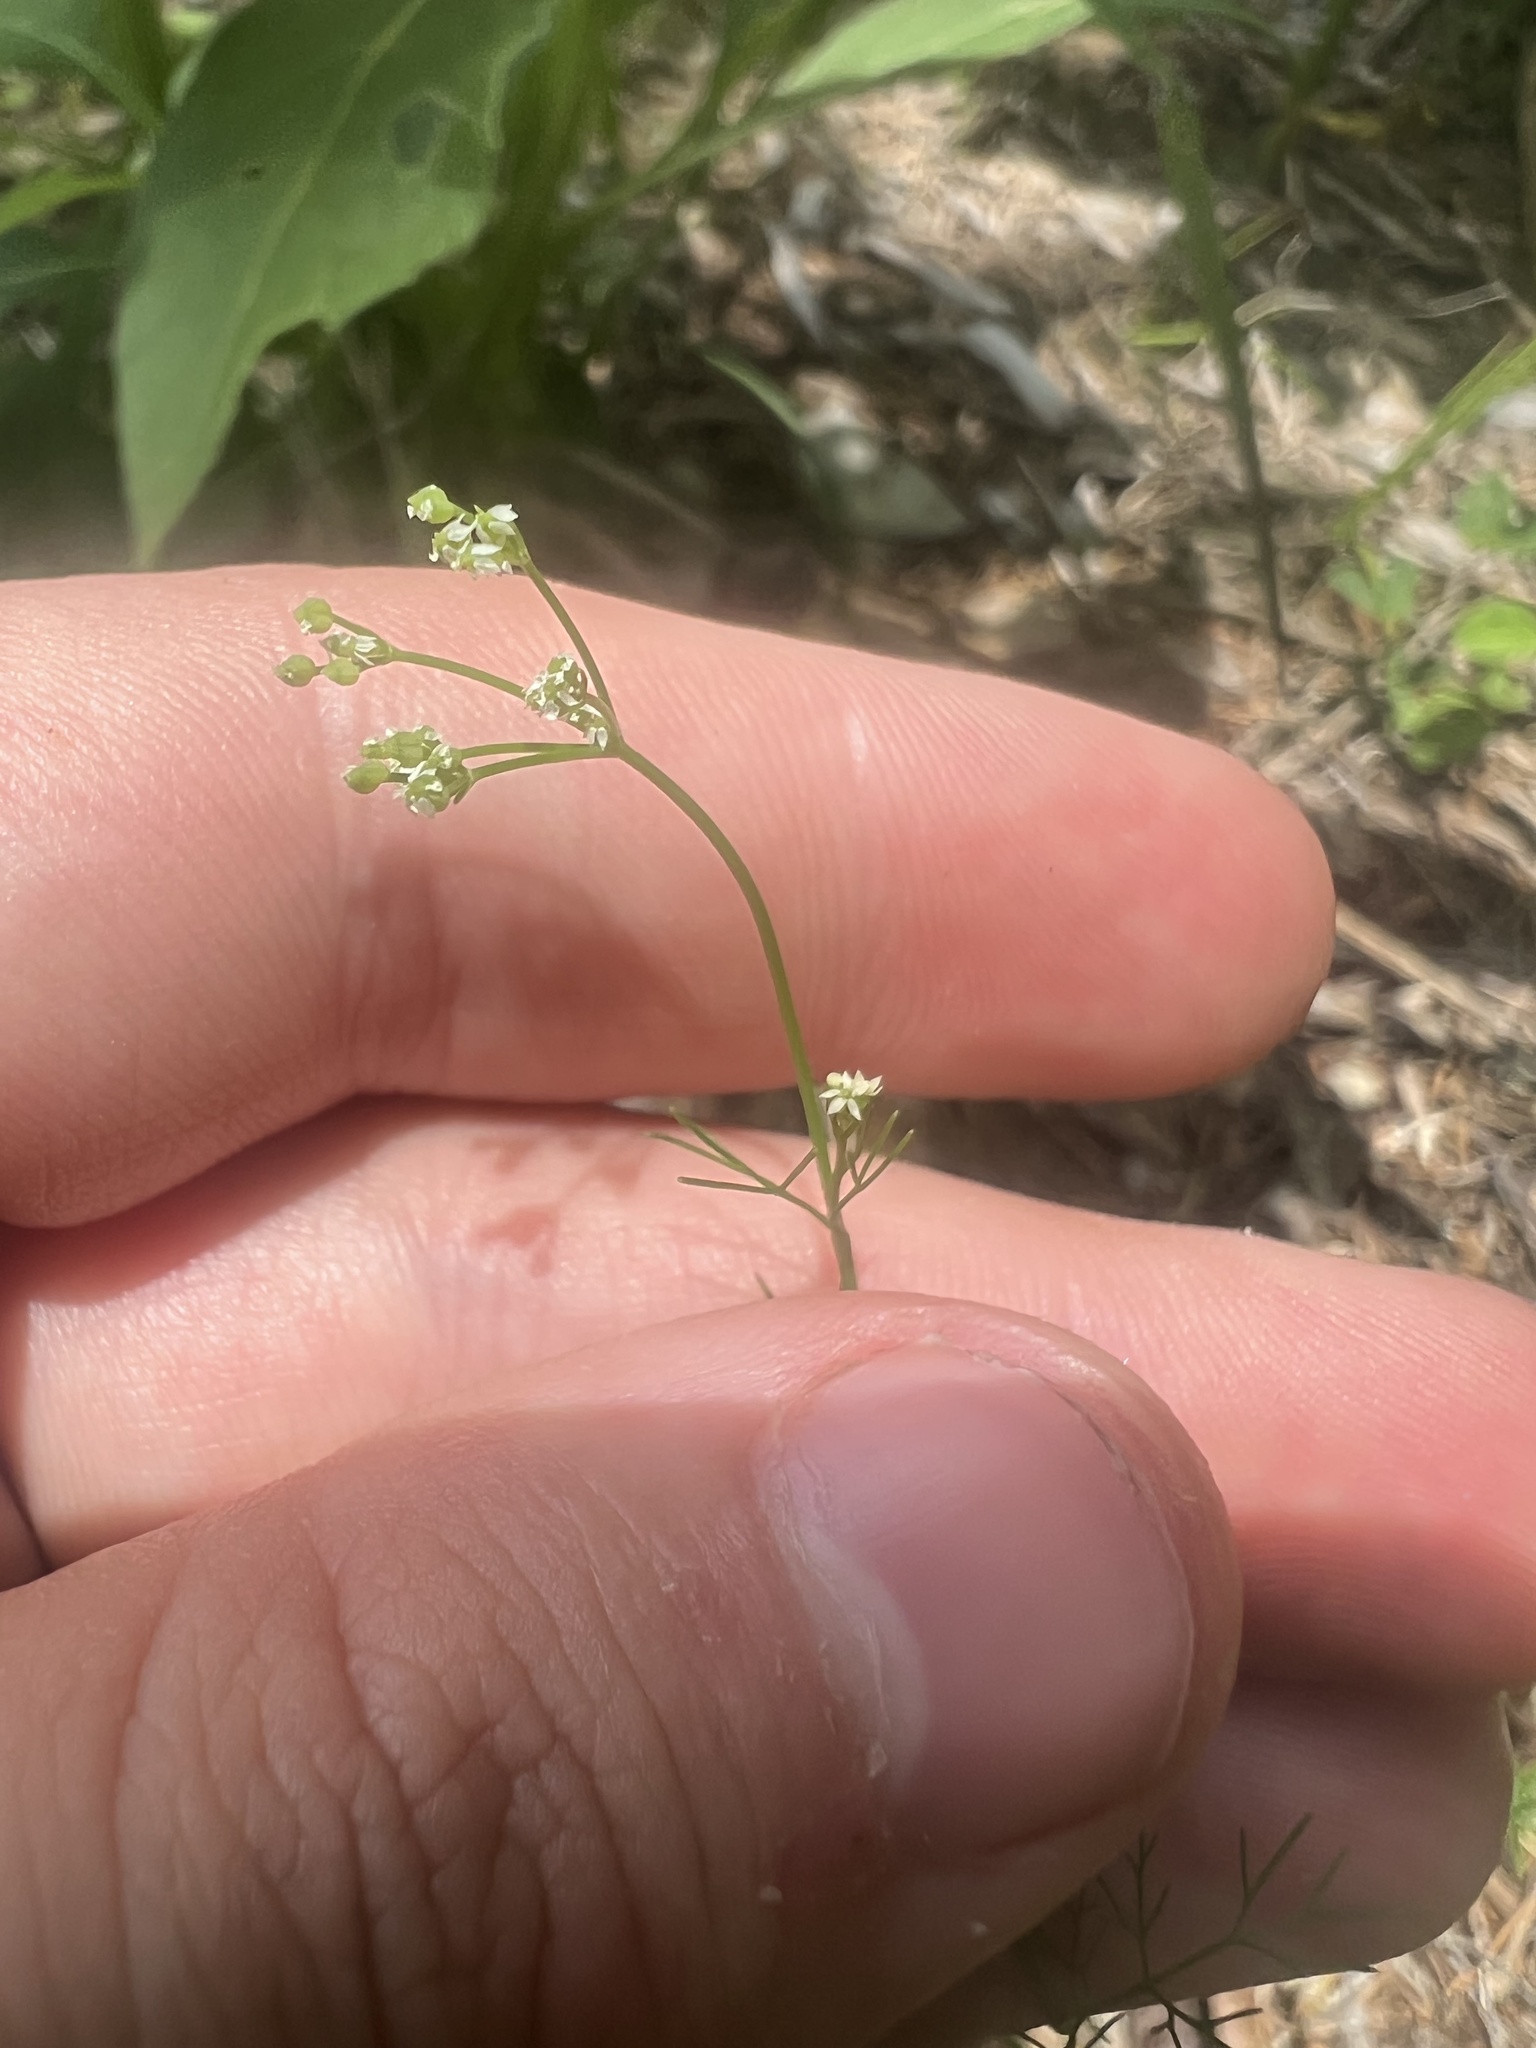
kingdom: Plantae
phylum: Tracheophyta
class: Magnoliopsida
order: Apiales
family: Apiaceae
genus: Ammoselinum
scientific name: Ammoselinum popei
